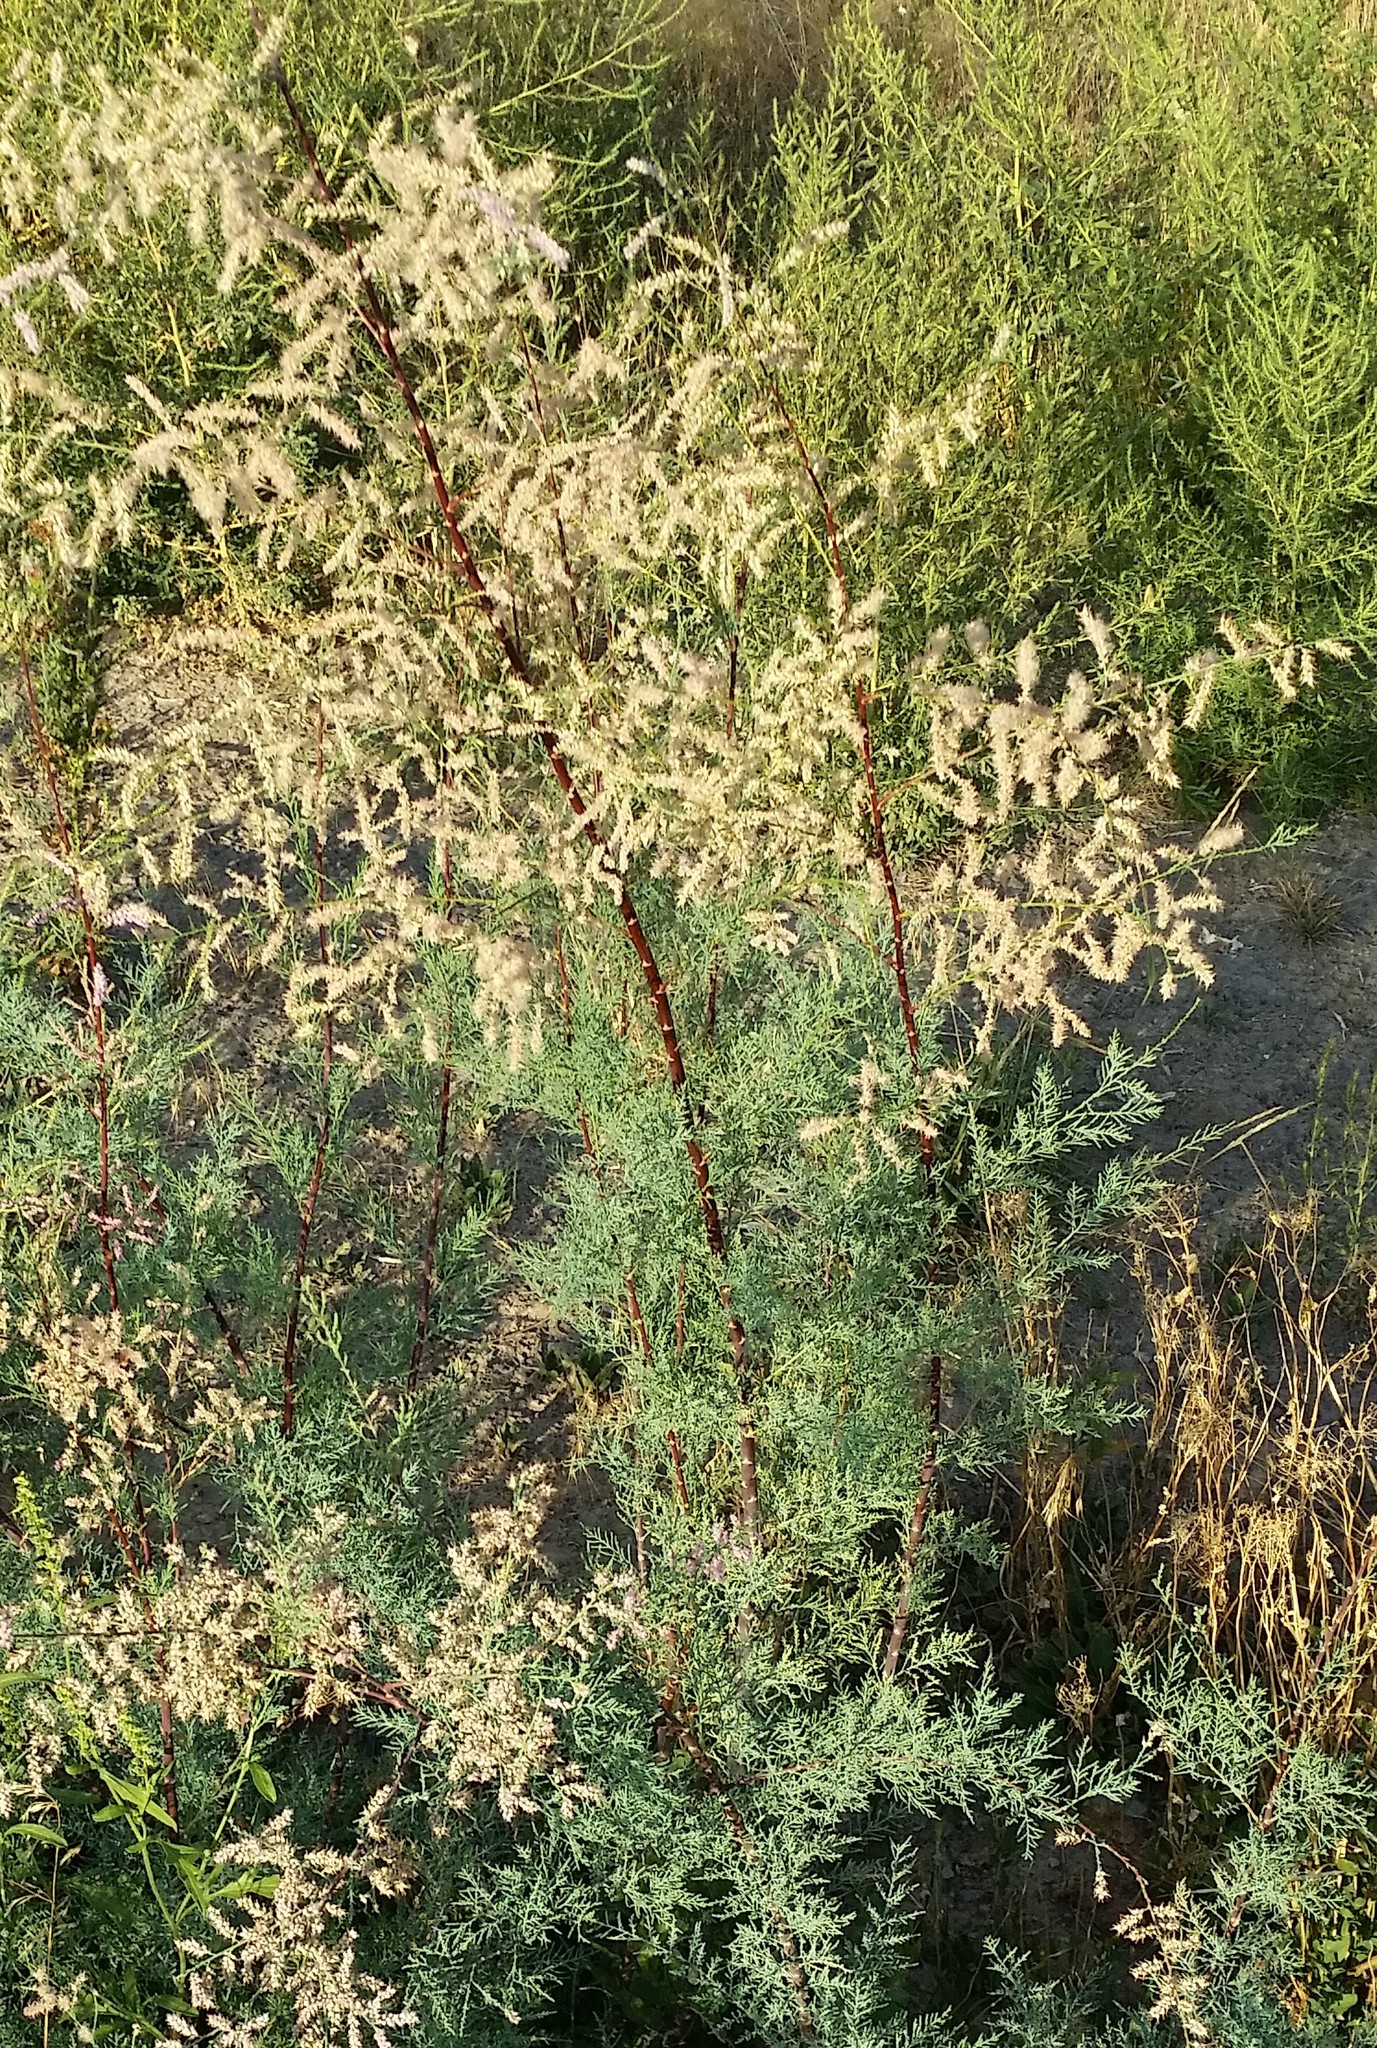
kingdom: Plantae
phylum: Tracheophyta
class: Magnoliopsida
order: Caryophyllales
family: Tamaricaceae
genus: Tamarix
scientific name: Tamarix chinensis
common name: Chinese tamarisk
